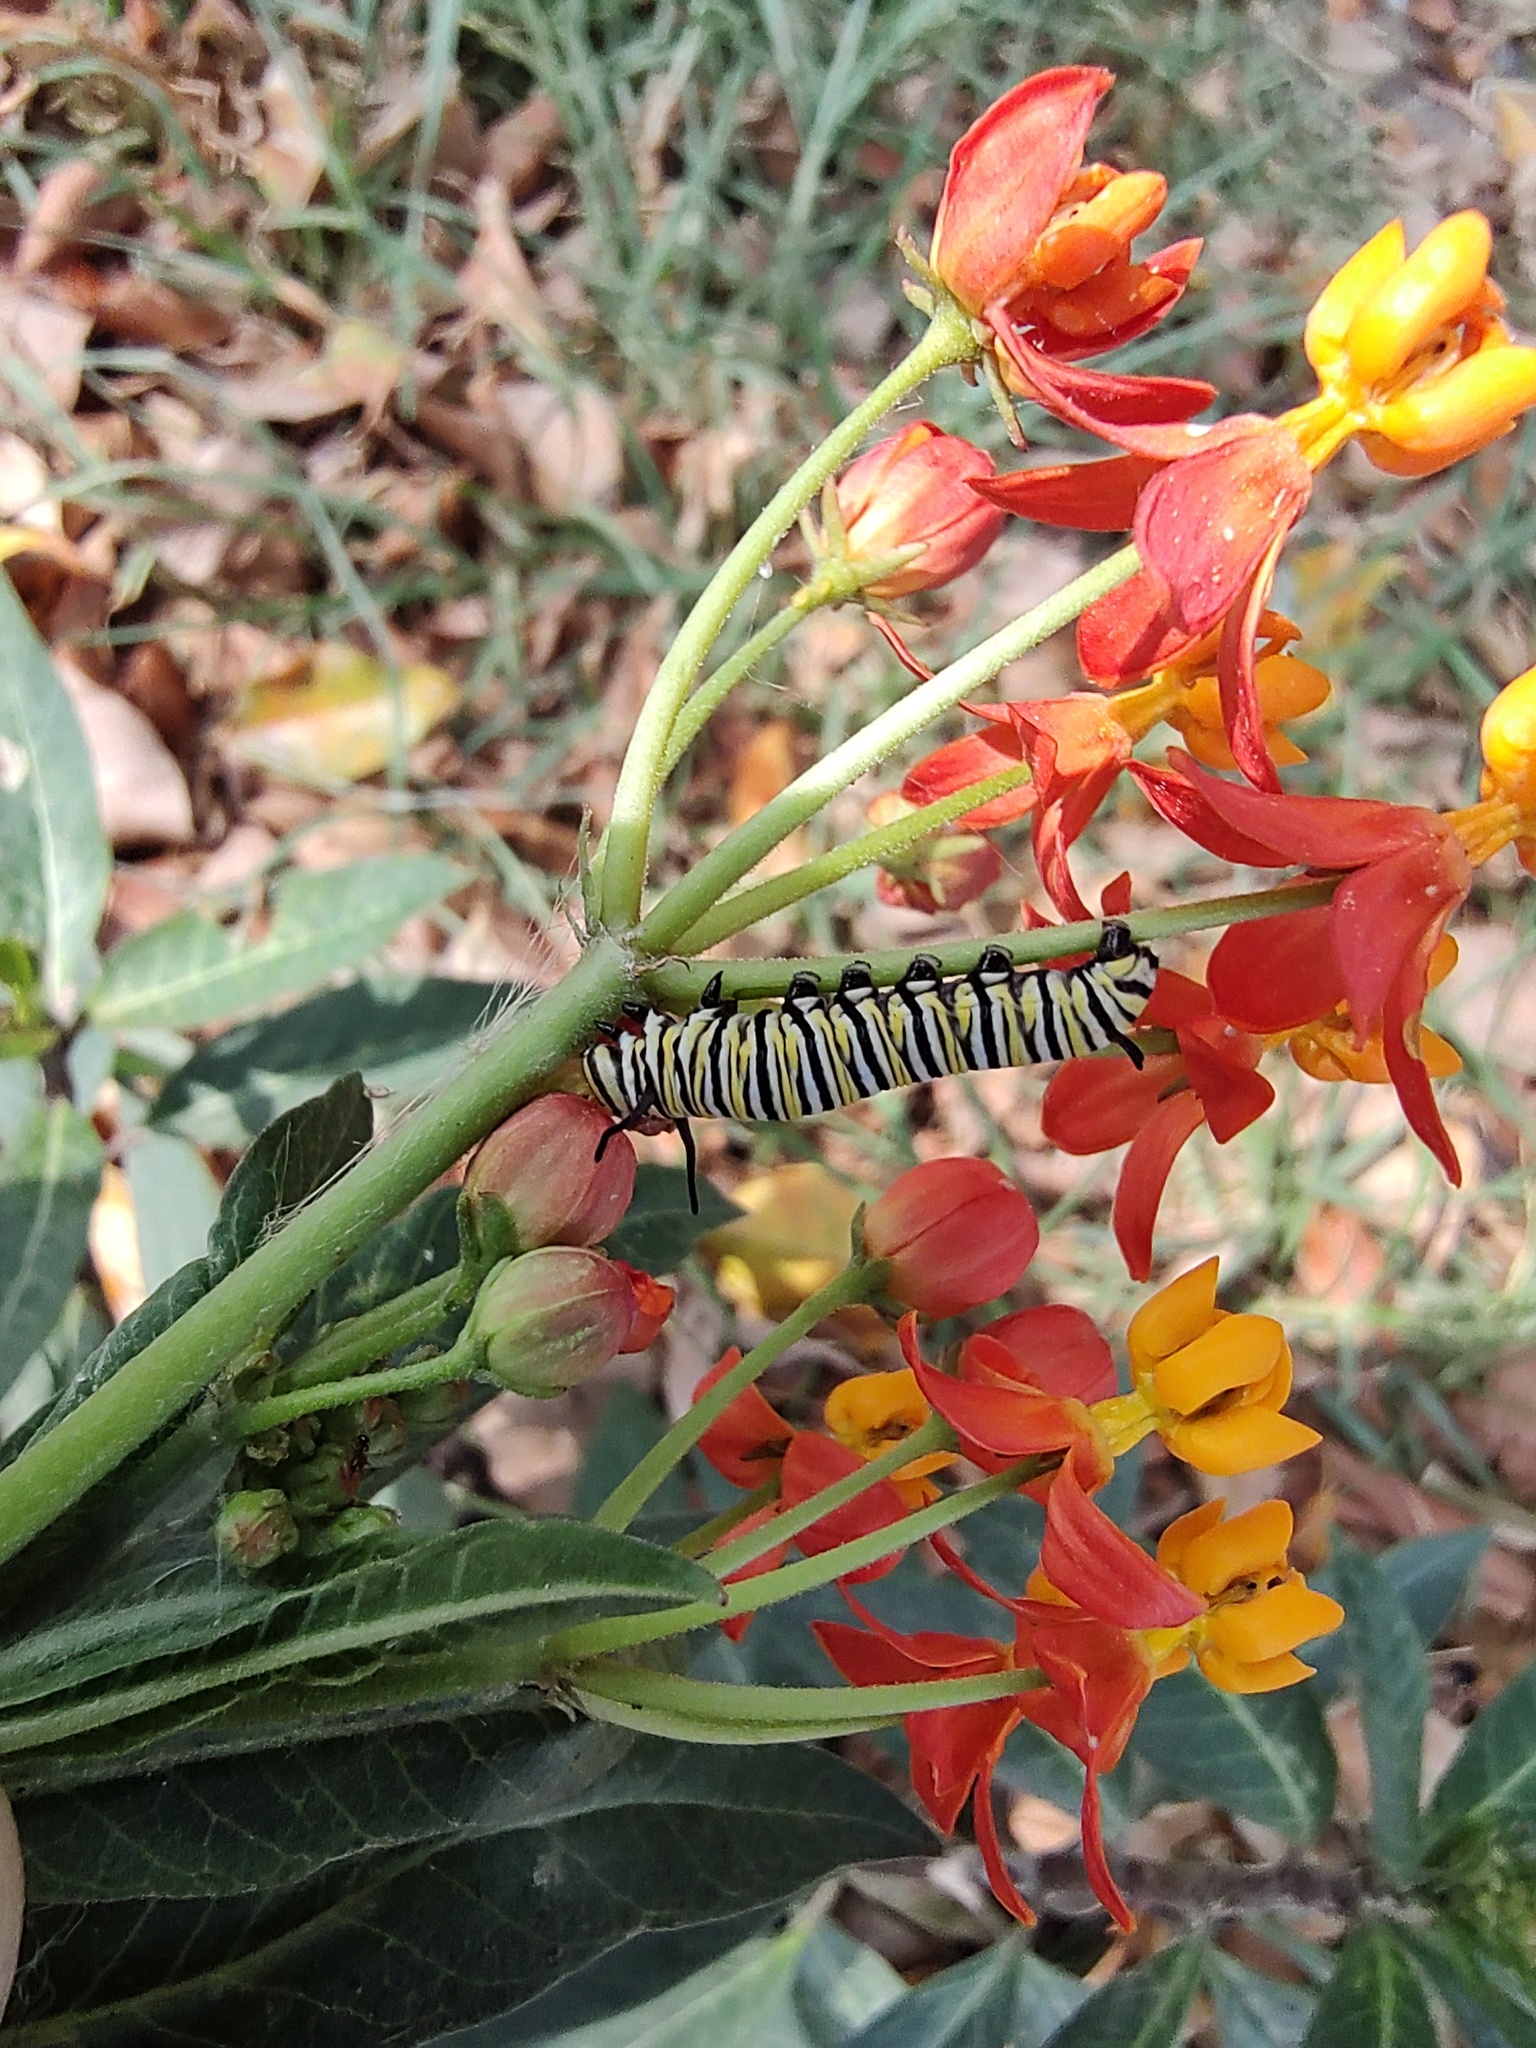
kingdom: Animalia
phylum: Arthropoda
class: Insecta
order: Lepidoptera
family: Nymphalidae
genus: Danaus
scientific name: Danaus plexippus
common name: Monarch
